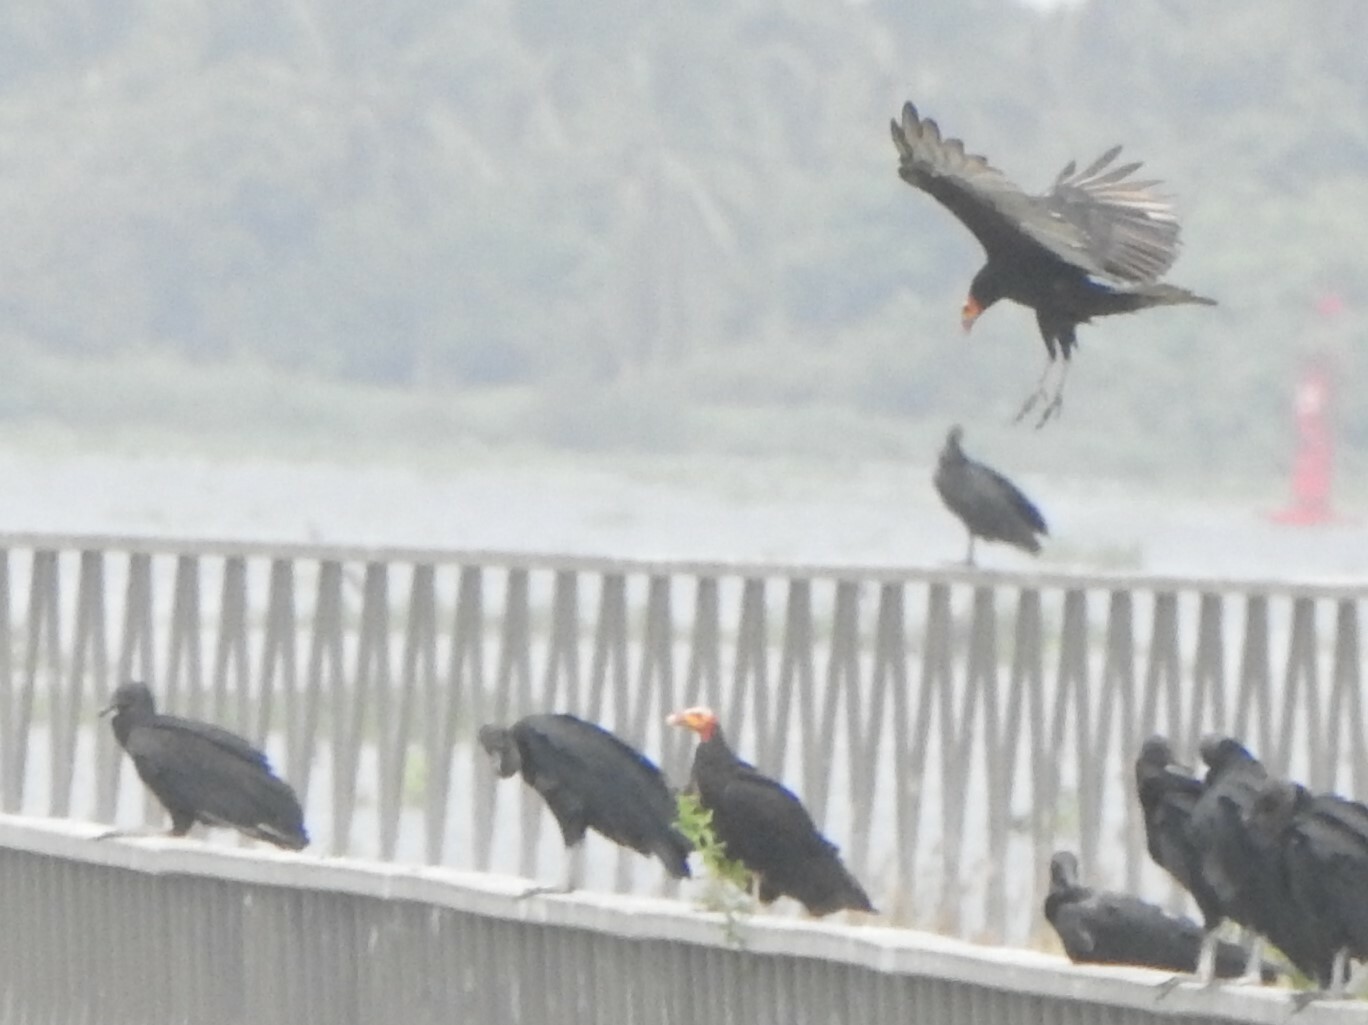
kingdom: Animalia
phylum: Chordata
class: Aves
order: Accipitriformes
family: Cathartidae
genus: Cathartes
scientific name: Cathartes burrovianus
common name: Lesser yellow-headed vulture
